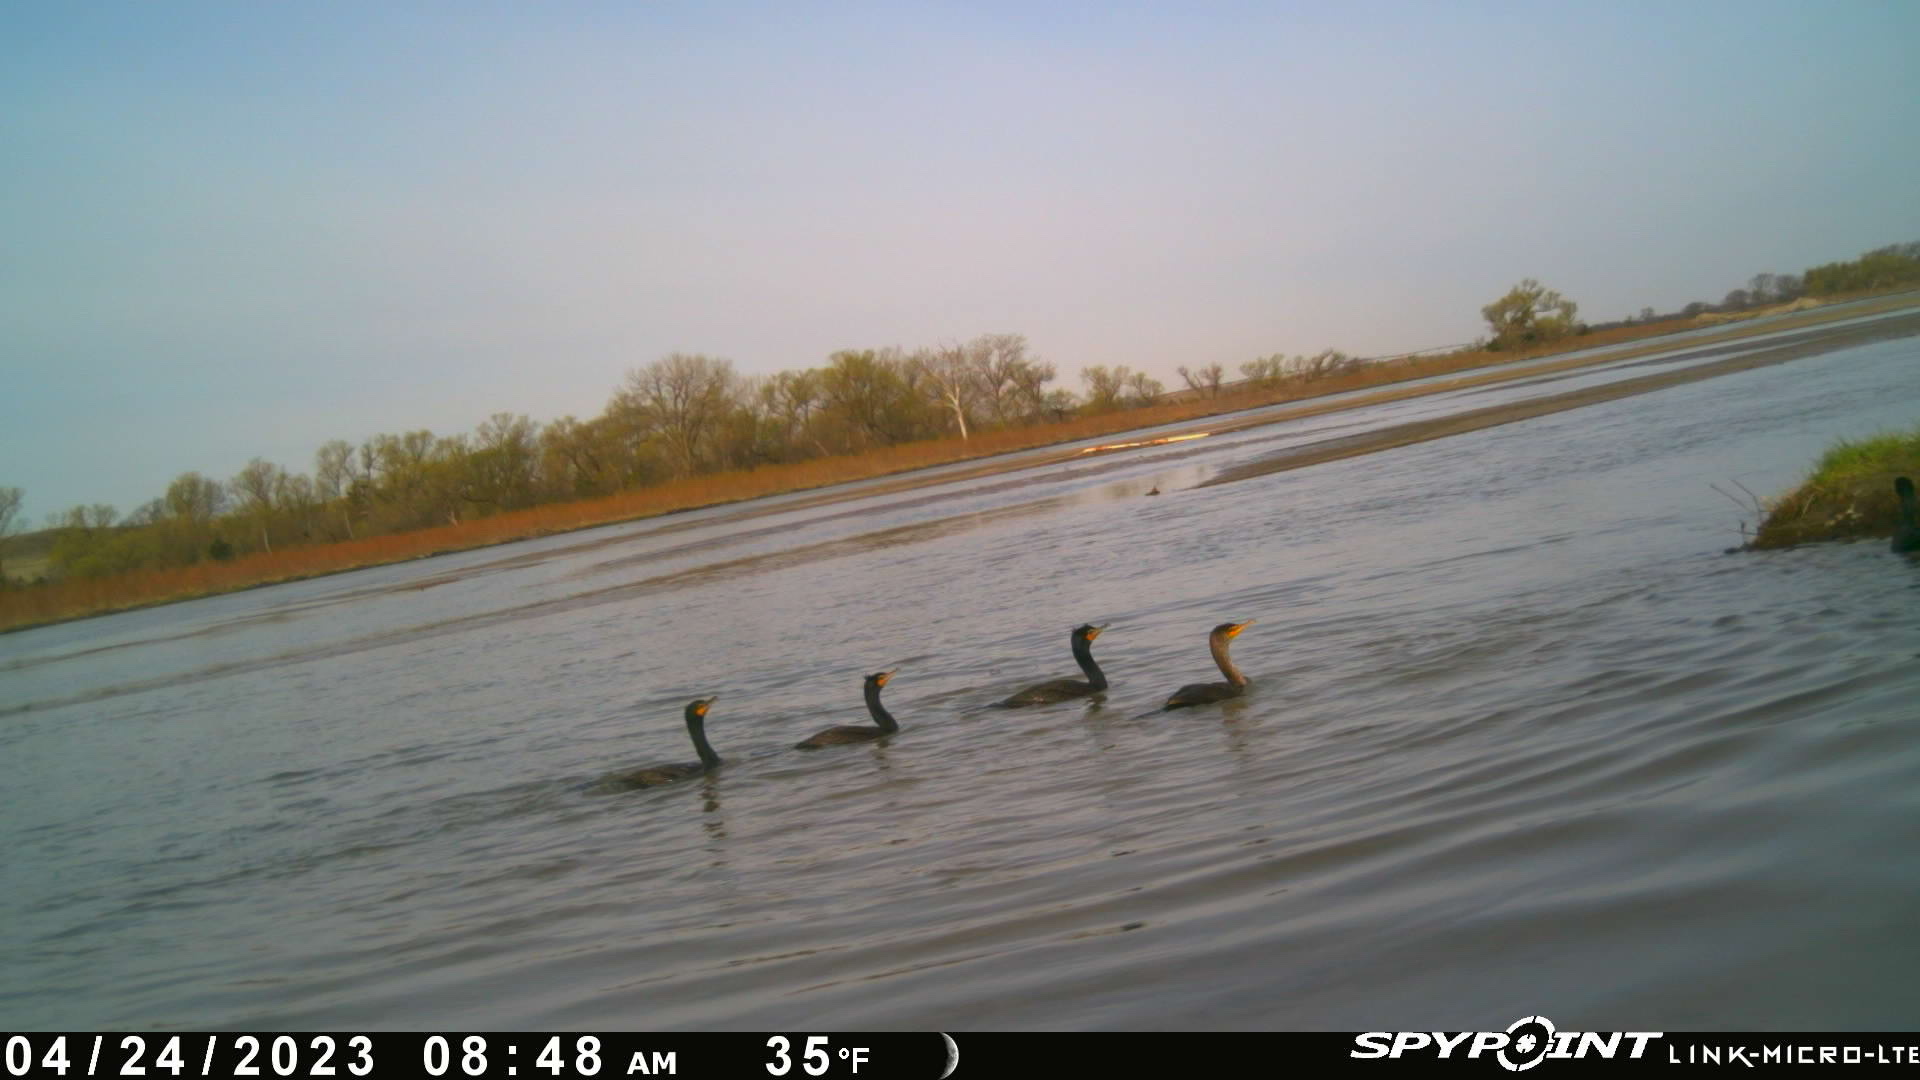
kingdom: Animalia
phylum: Chordata
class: Aves
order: Suliformes
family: Phalacrocoracidae
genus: Phalacrocorax
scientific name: Phalacrocorax auritus
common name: Double-crested cormorant
